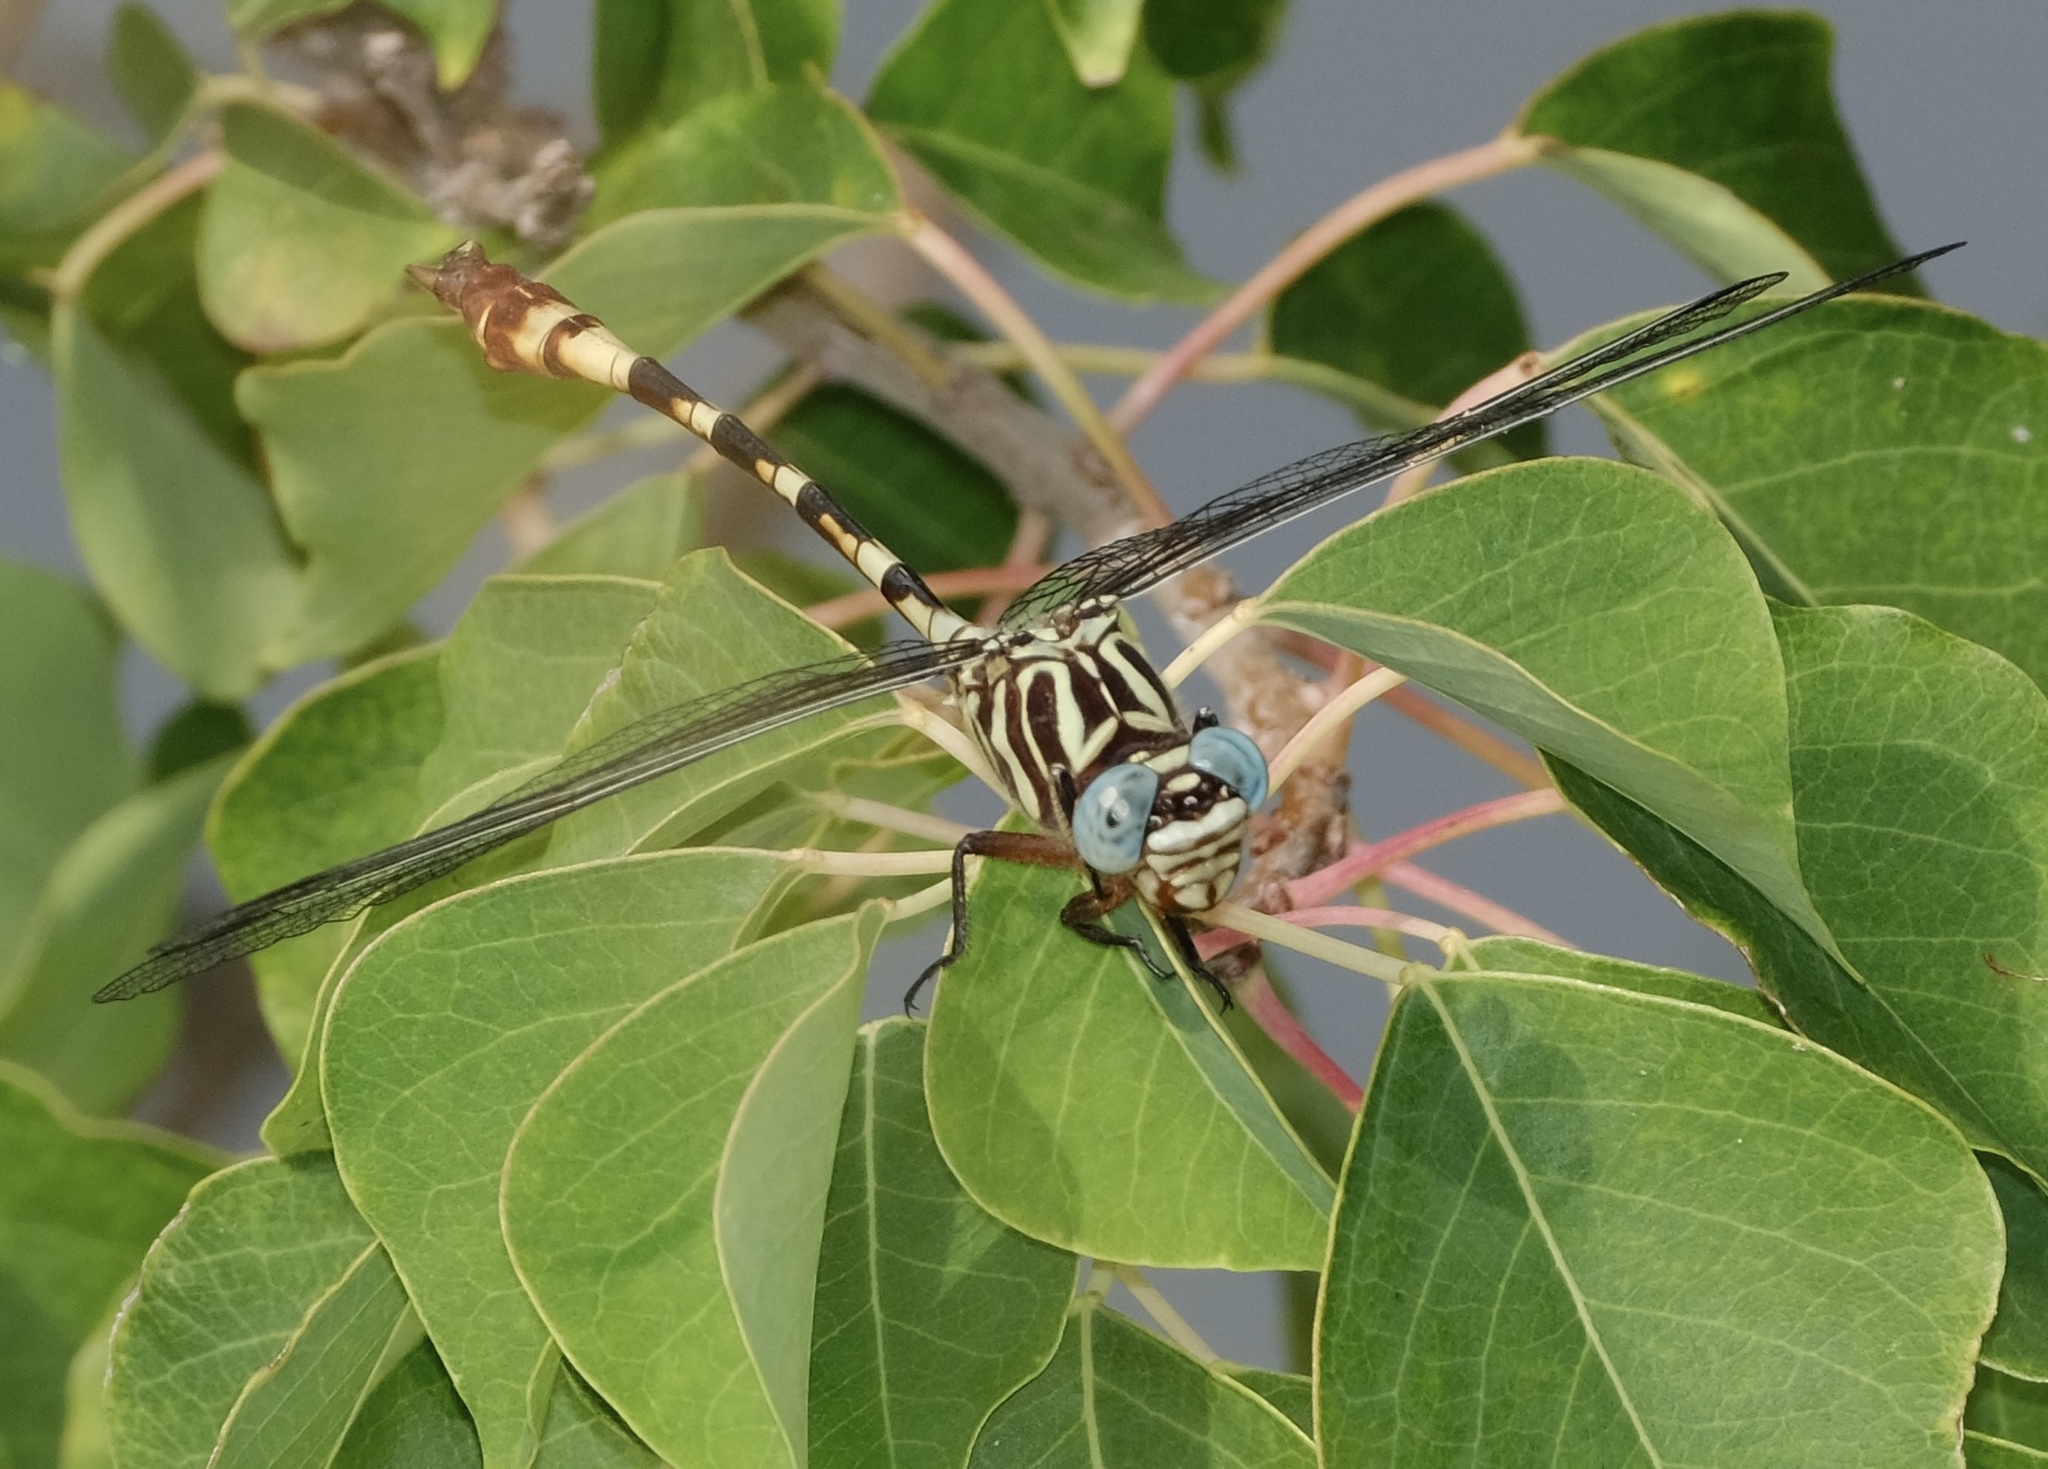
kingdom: Animalia
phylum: Arthropoda
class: Insecta
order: Odonata
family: Gomphidae
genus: Aphylla
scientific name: Aphylla angustifolia
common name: Broad-striped forceptail
